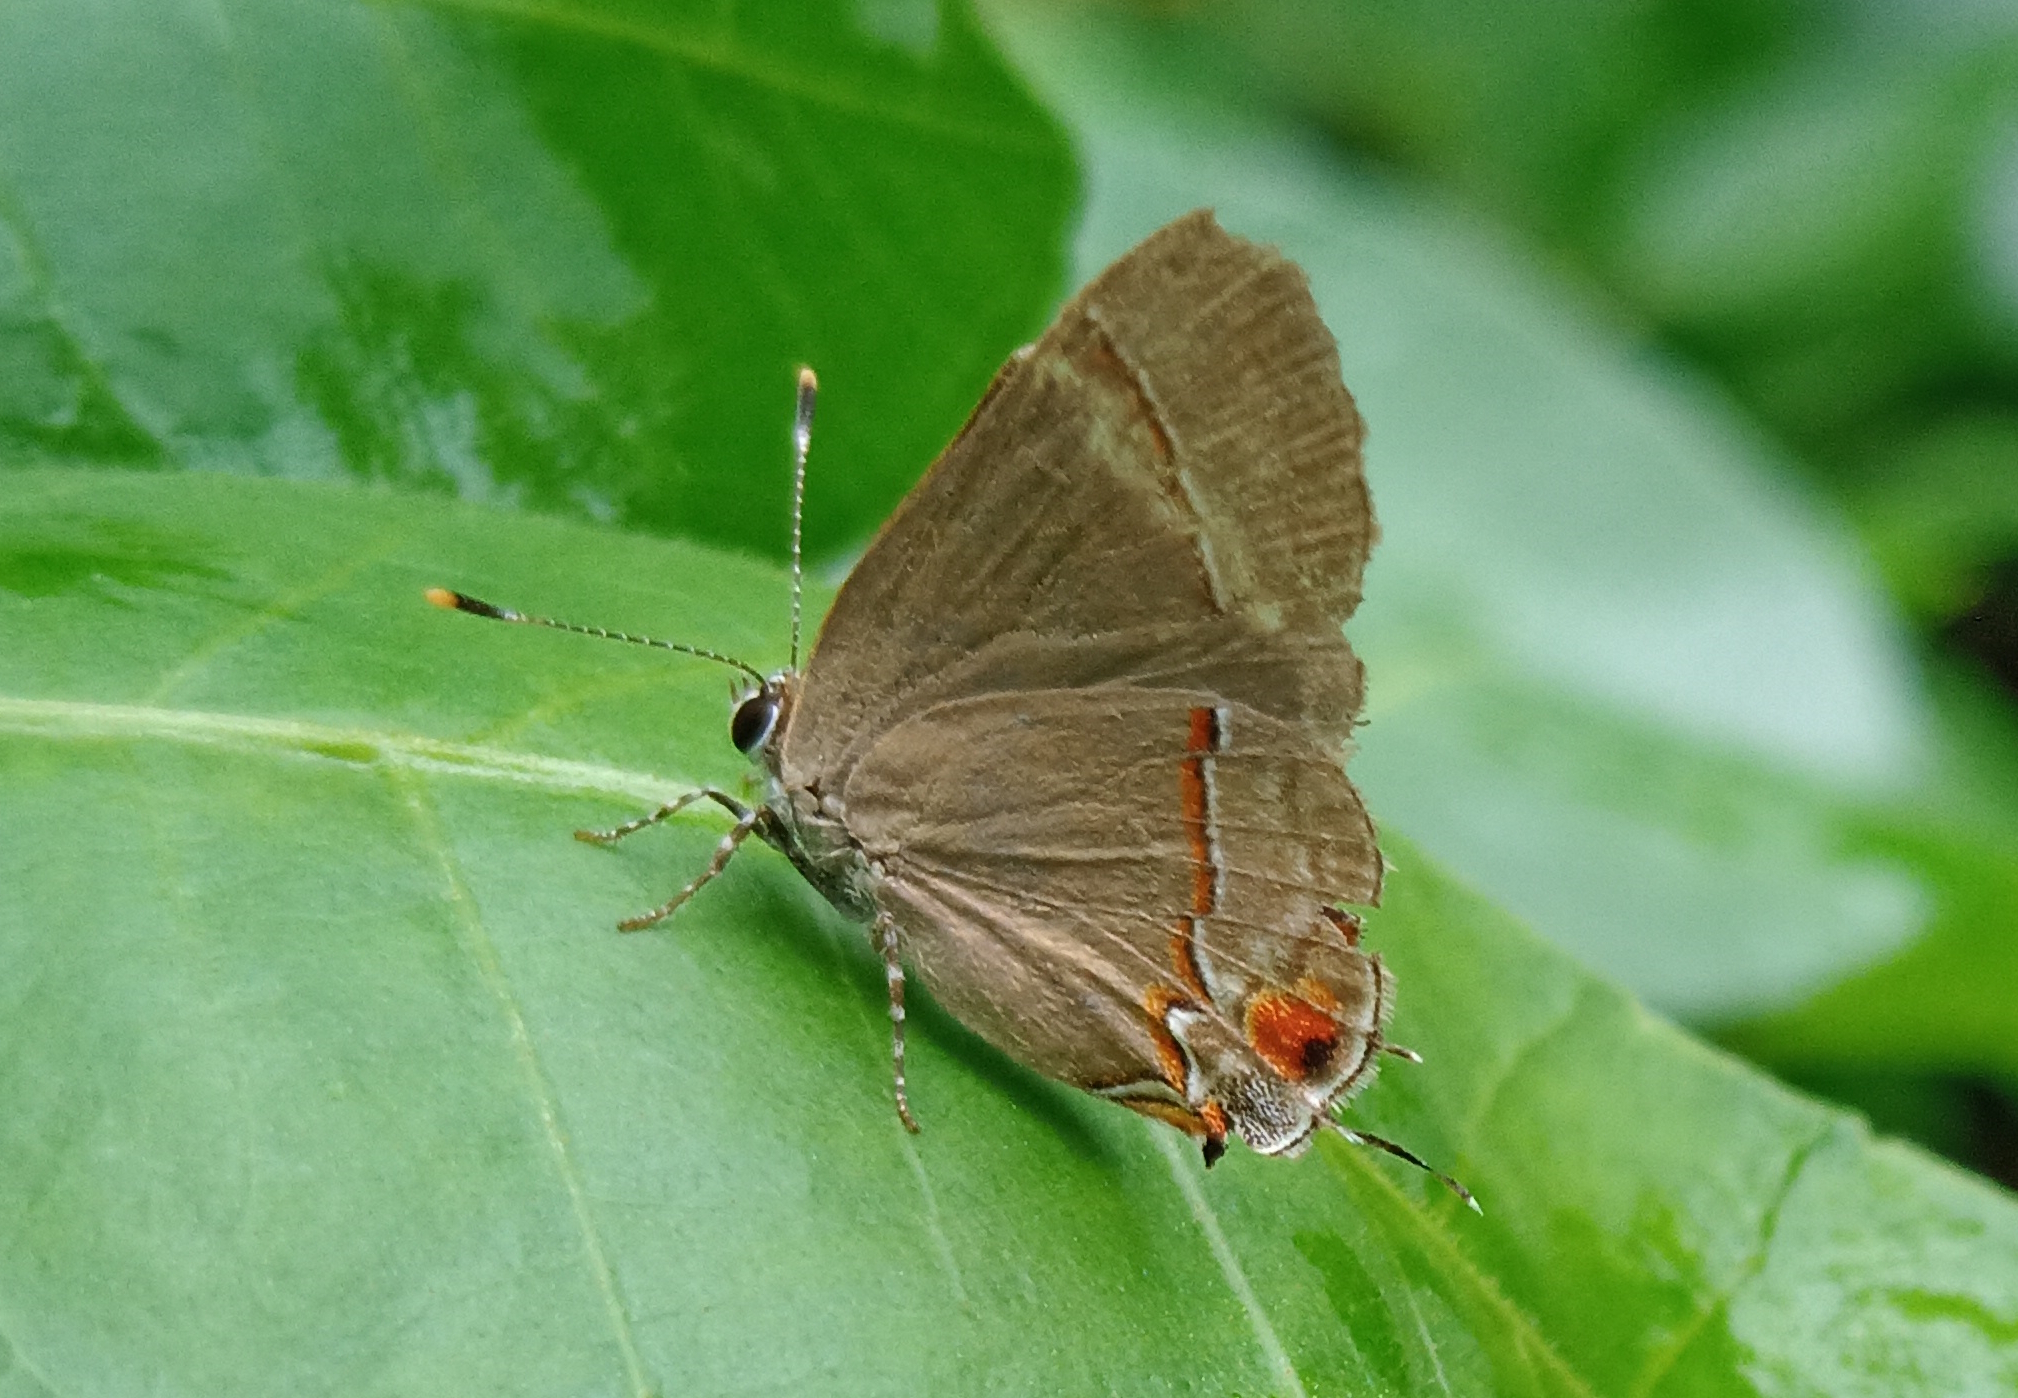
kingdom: Animalia
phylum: Arthropoda
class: Insecta
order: Lepidoptera
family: Lycaenidae
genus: Thecla
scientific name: Thecla syllis
